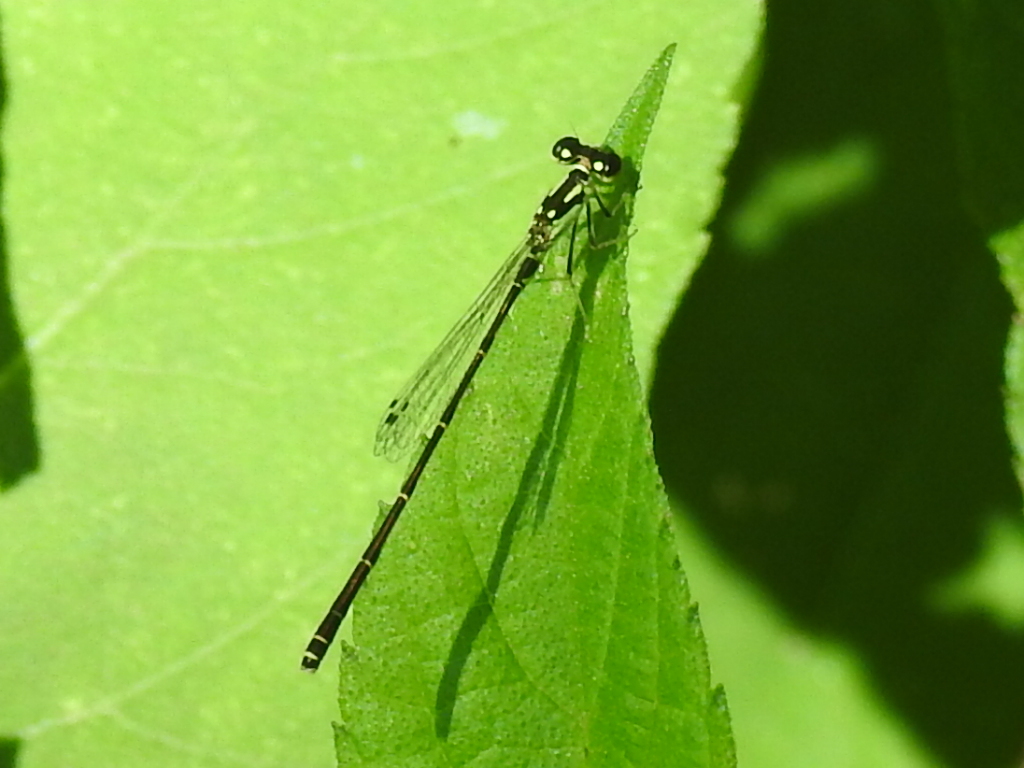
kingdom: Animalia
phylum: Arthropoda
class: Insecta
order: Odonata
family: Coenagrionidae
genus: Ischnura
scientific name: Ischnura posita
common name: Fragile forktail
